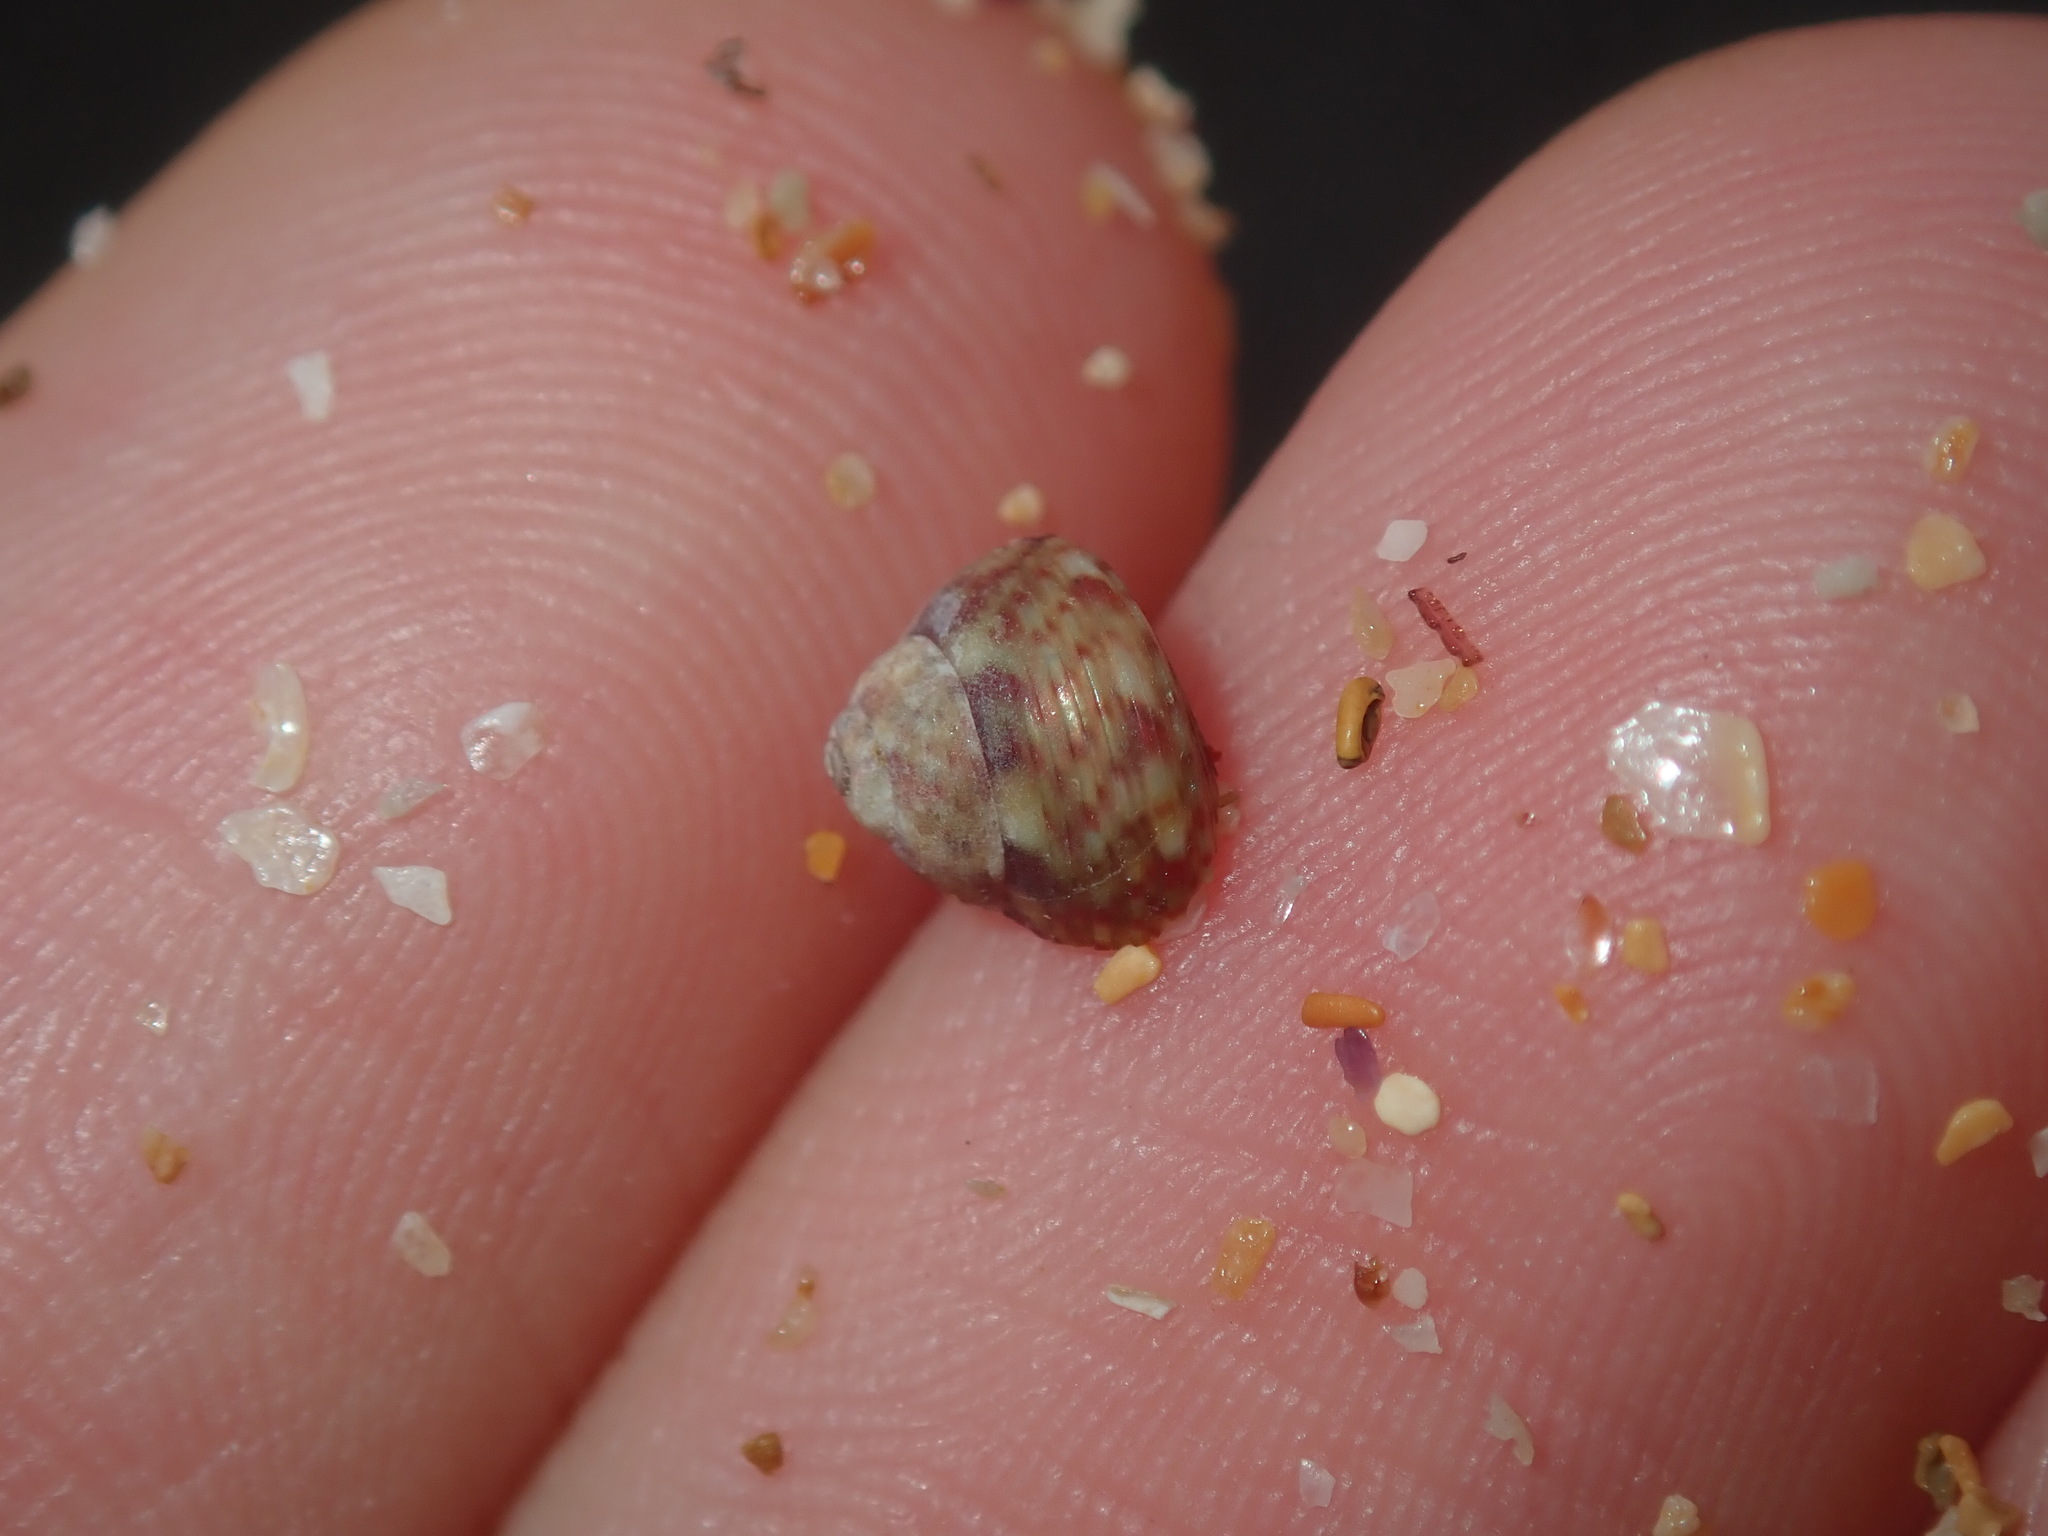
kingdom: Animalia
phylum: Mollusca
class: Gastropoda
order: Trochida
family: Trochidae
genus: Cantharidella
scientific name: Cantharidella picturata
